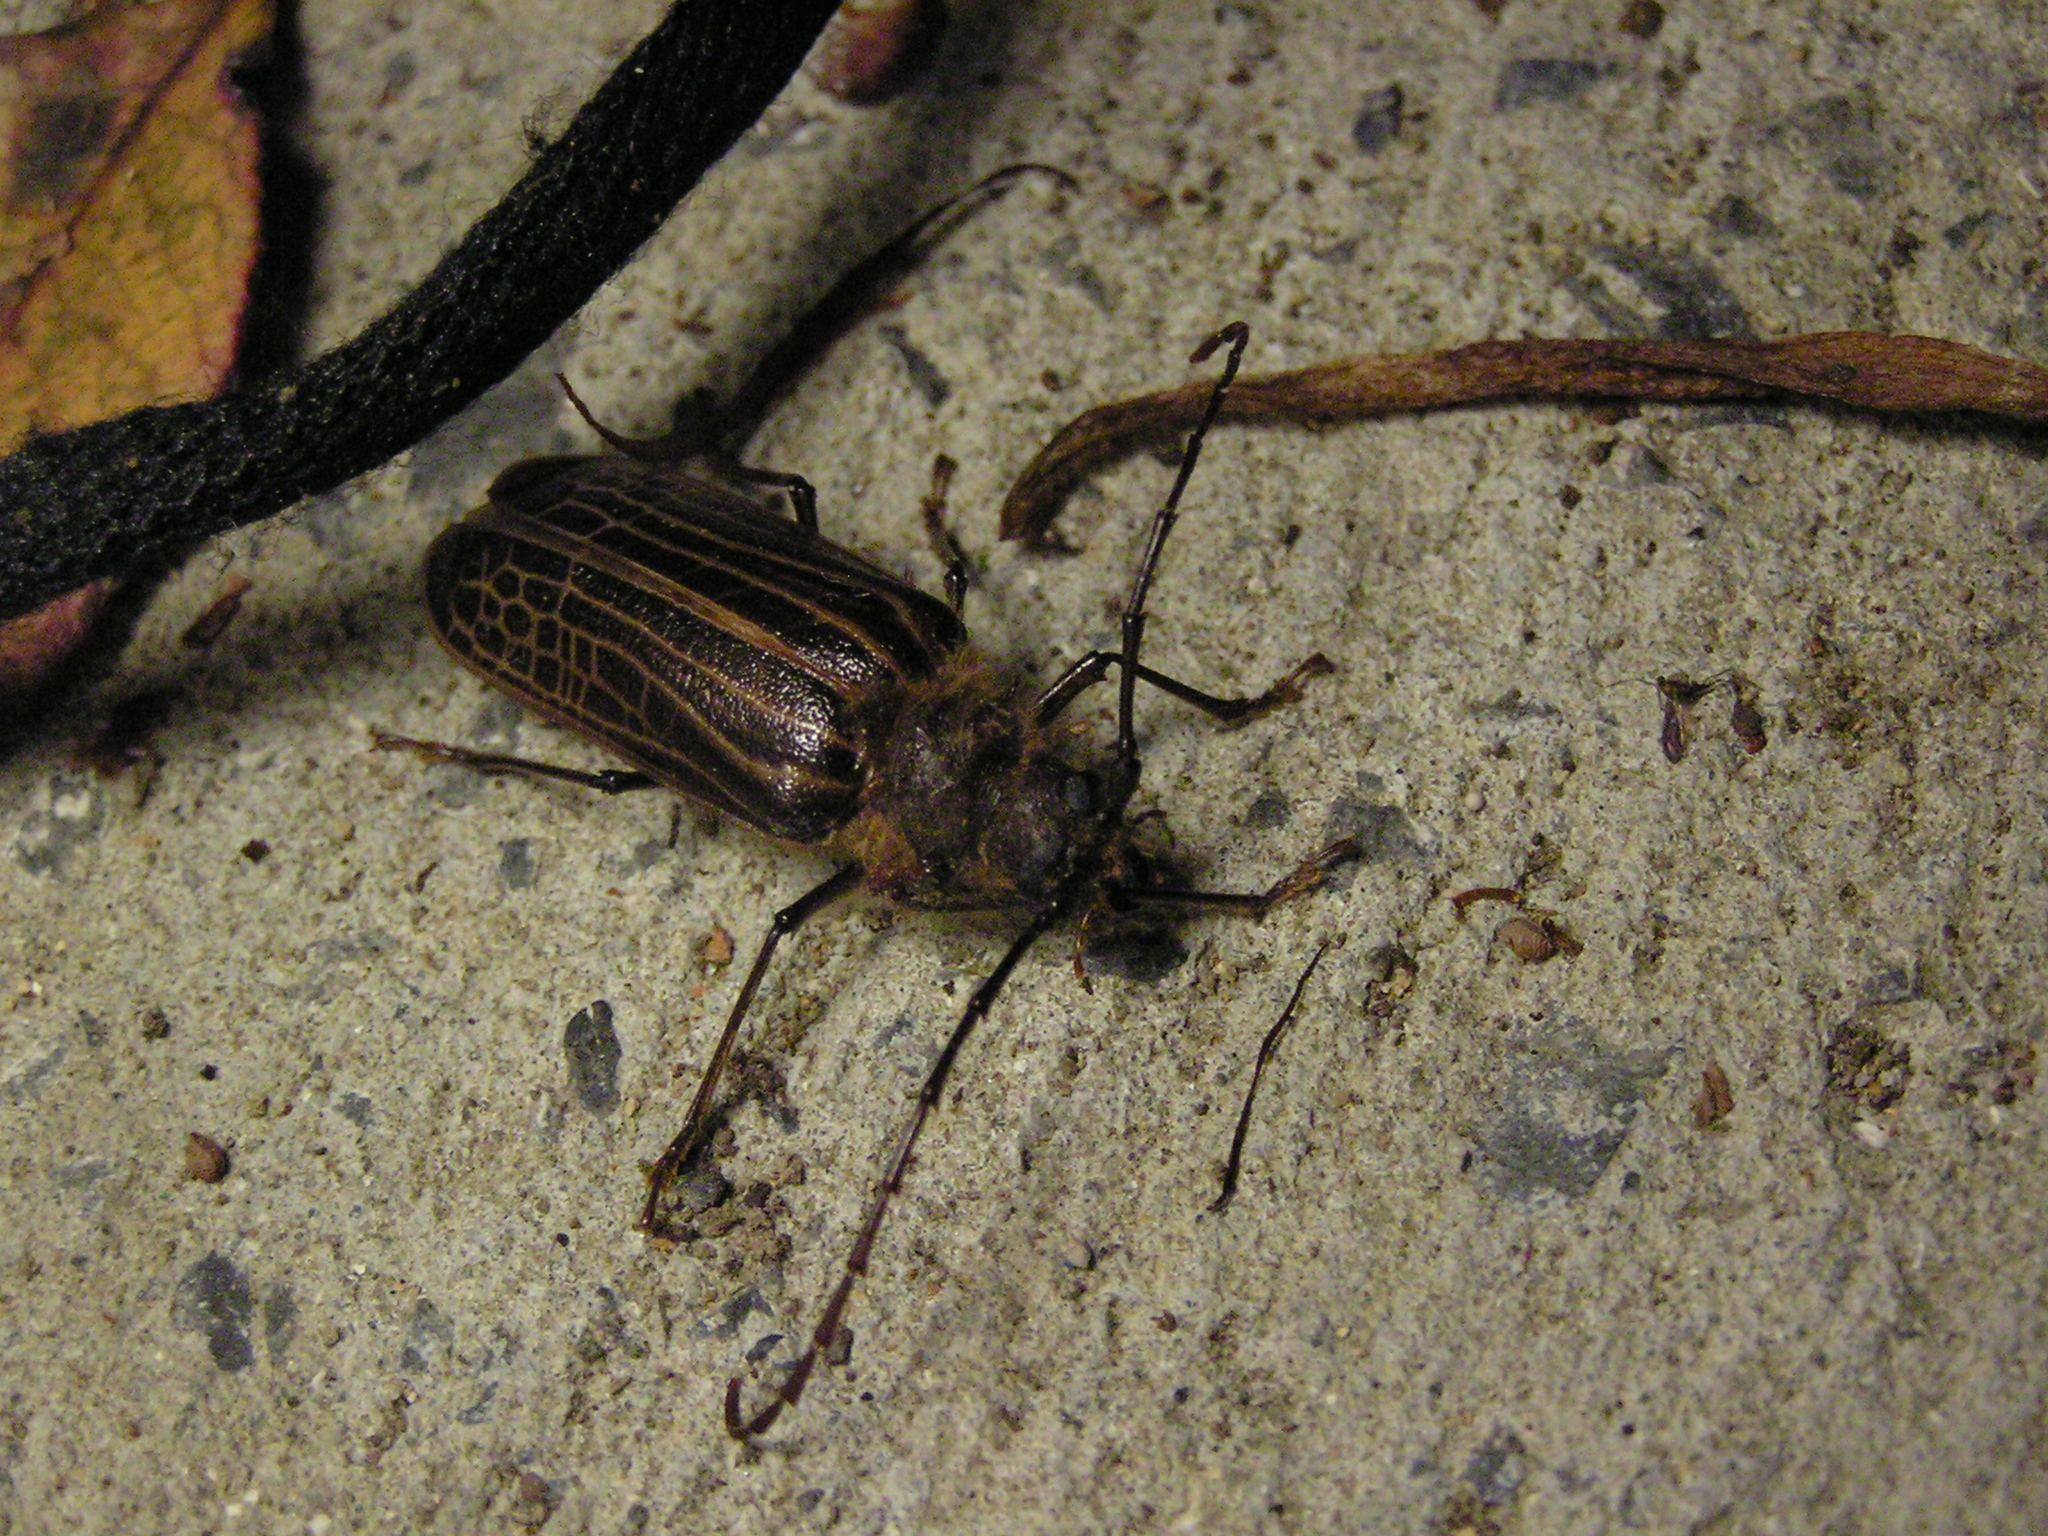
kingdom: Animalia
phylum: Arthropoda
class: Insecta
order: Coleoptera
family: Cerambycidae
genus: Prionoplus
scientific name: Prionoplus reticularis
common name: Huhu beetle
